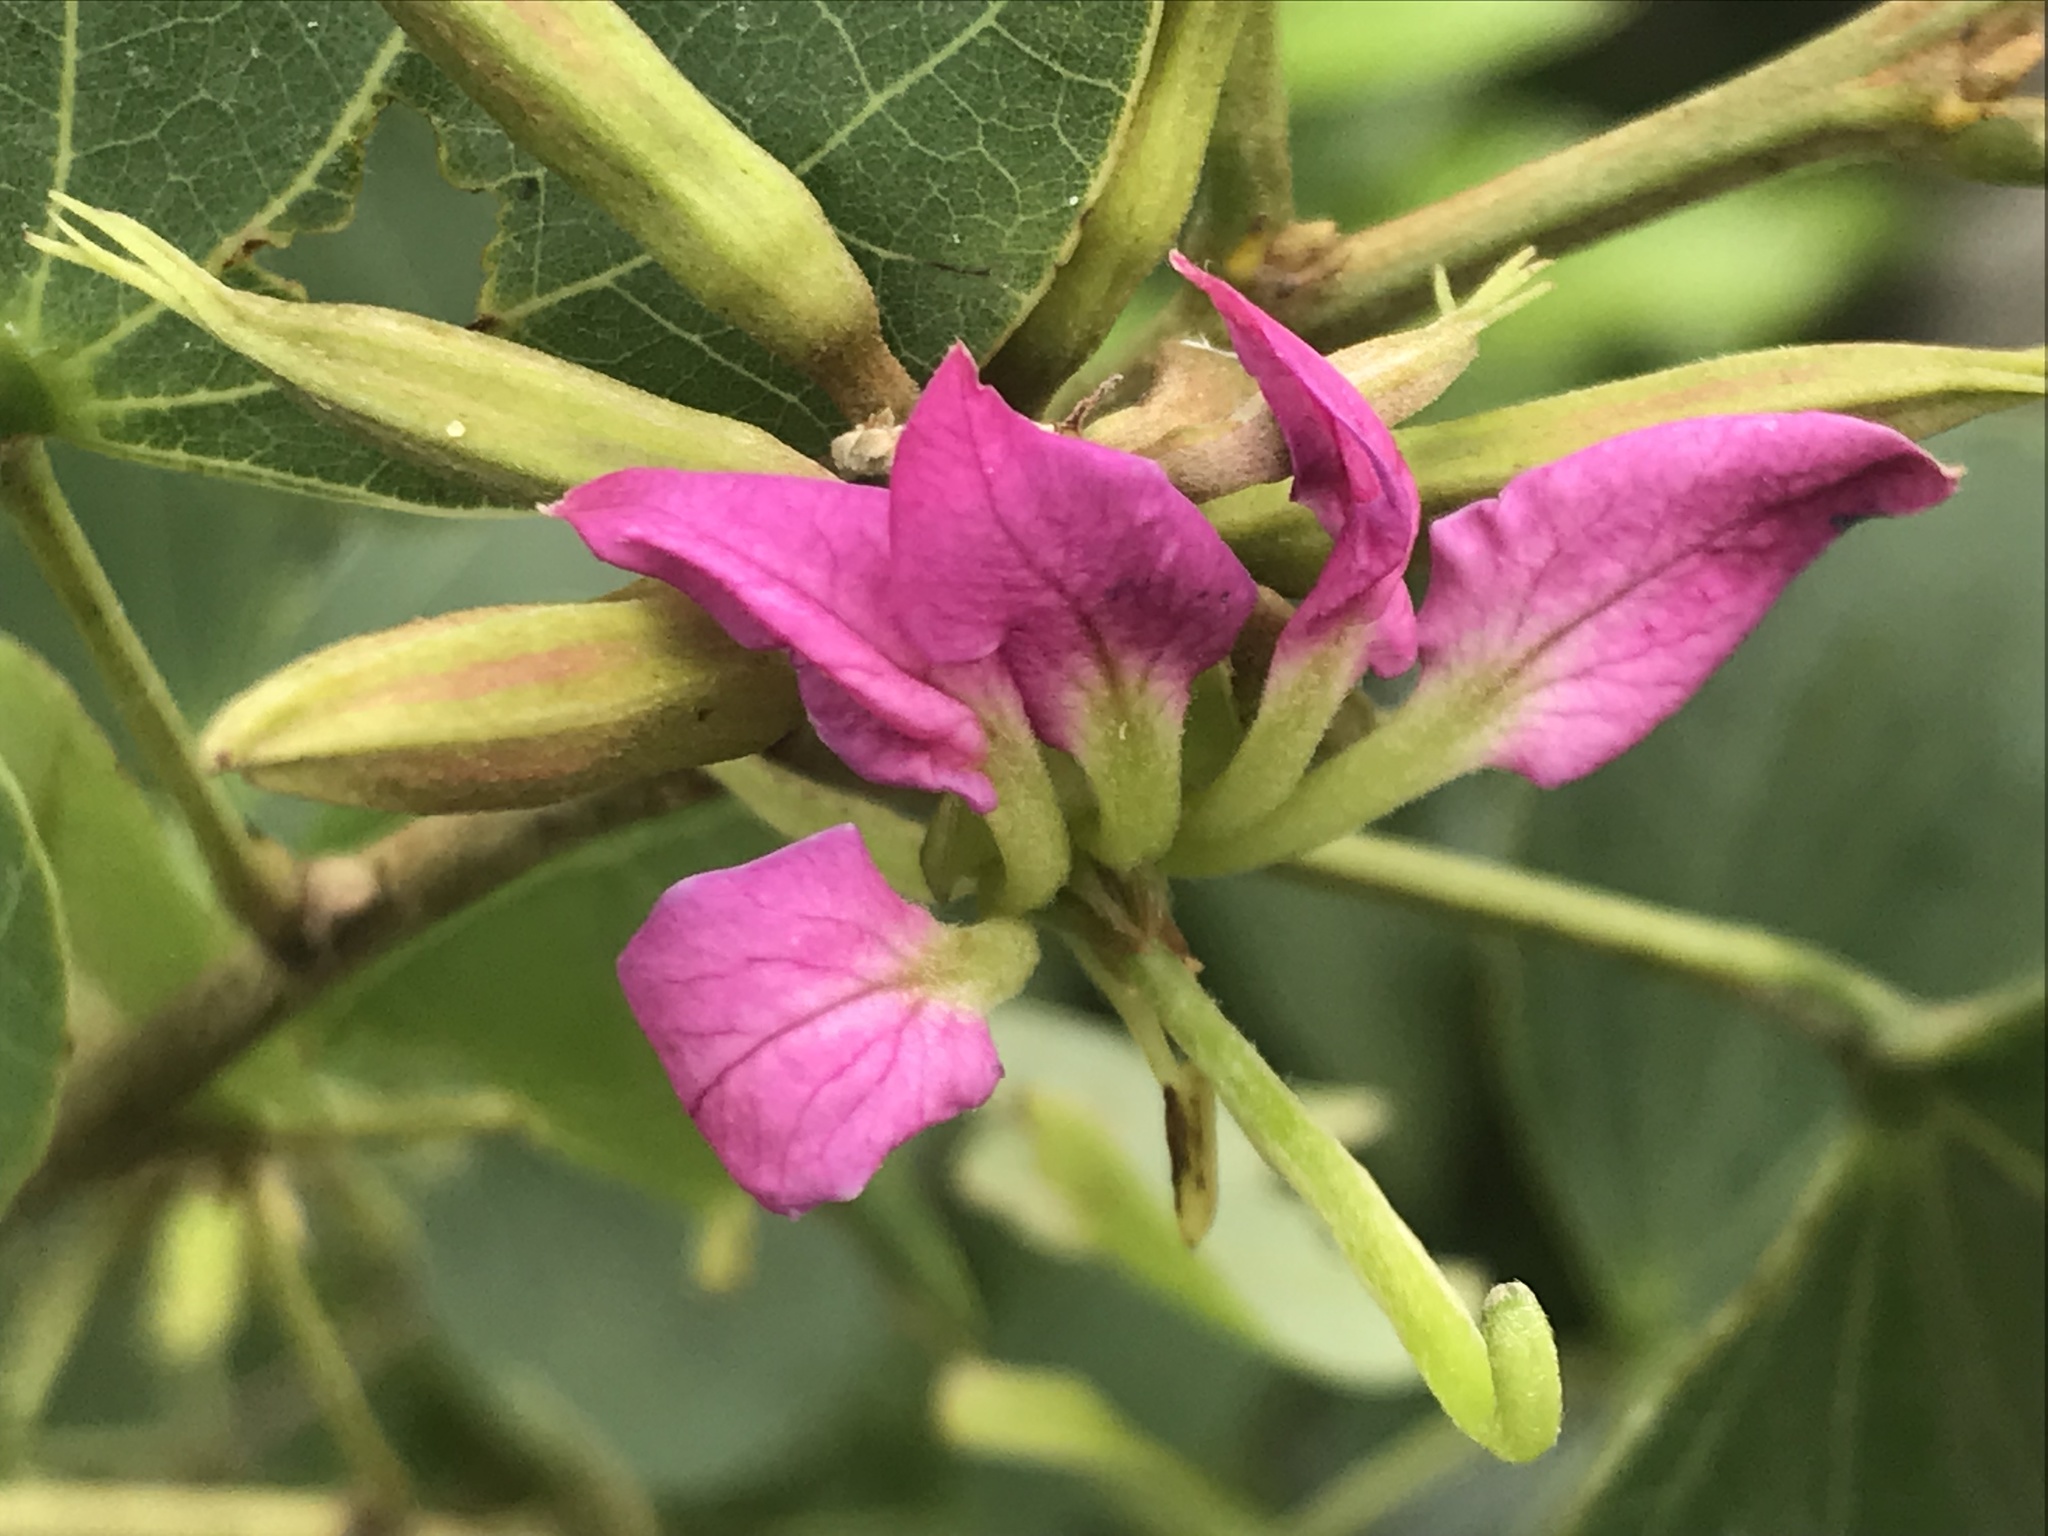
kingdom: Plantae
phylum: Tracheophyta
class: Magnoliopsida
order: Fabales
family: Fabaceae
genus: Bauhinia
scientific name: Bauhinia macranthera
